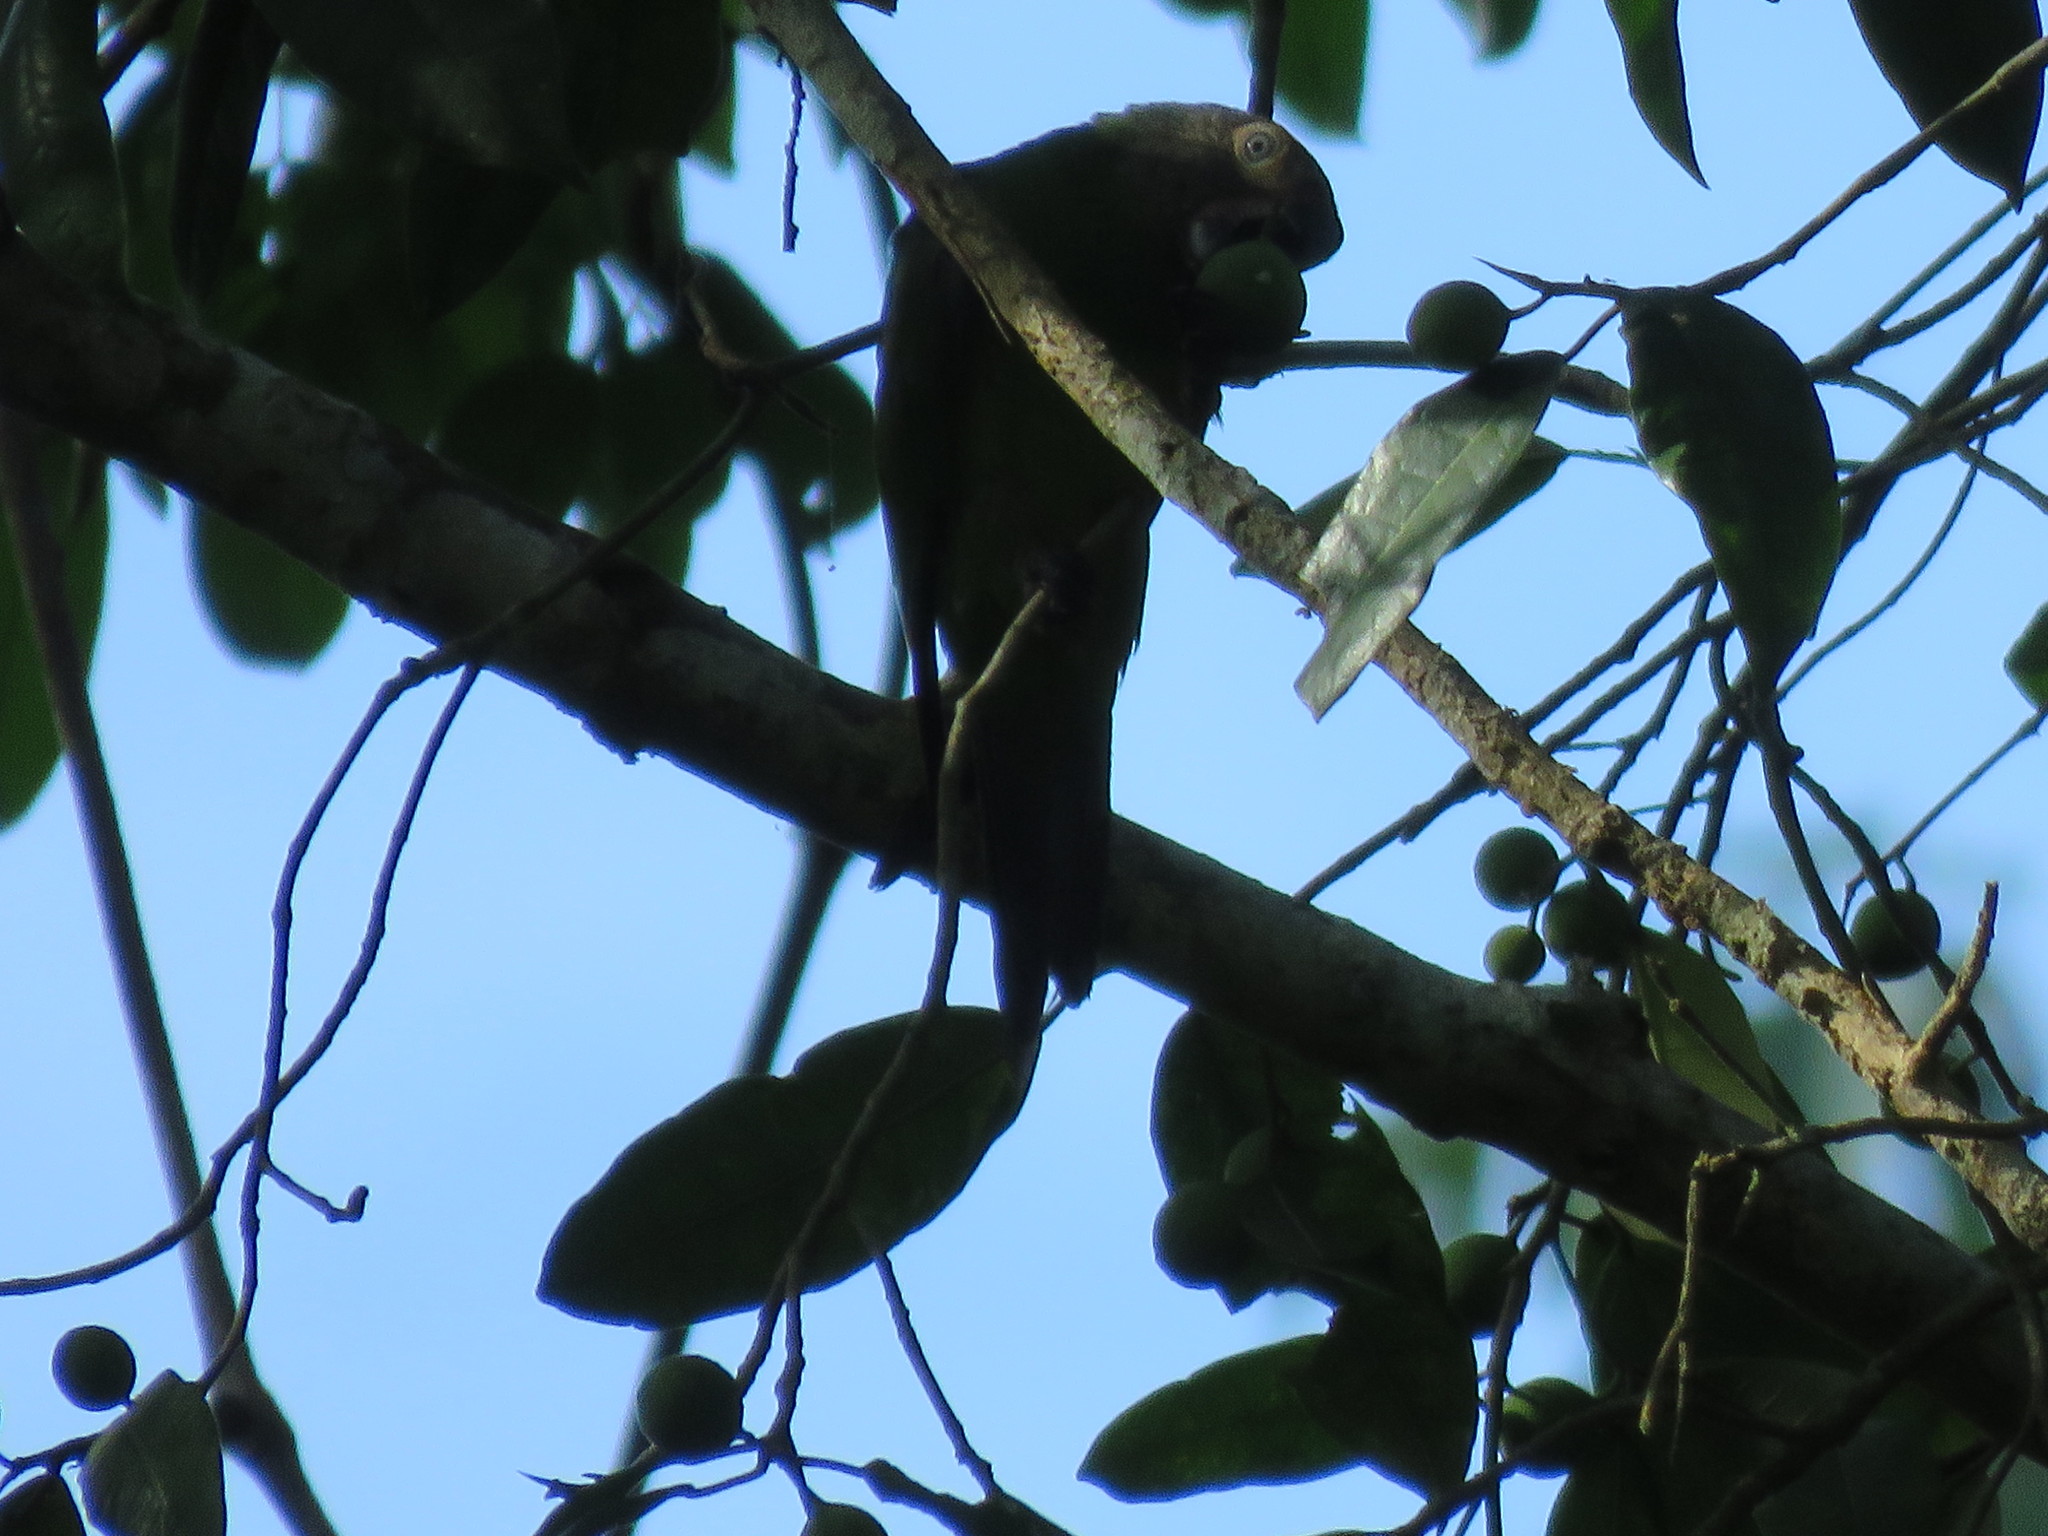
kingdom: Animalia
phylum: Chordata
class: Aves
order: Psittaciformes
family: Psittacidae
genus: Aratinga
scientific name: Aratinga weddellii
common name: Dusky-headed parakeet
